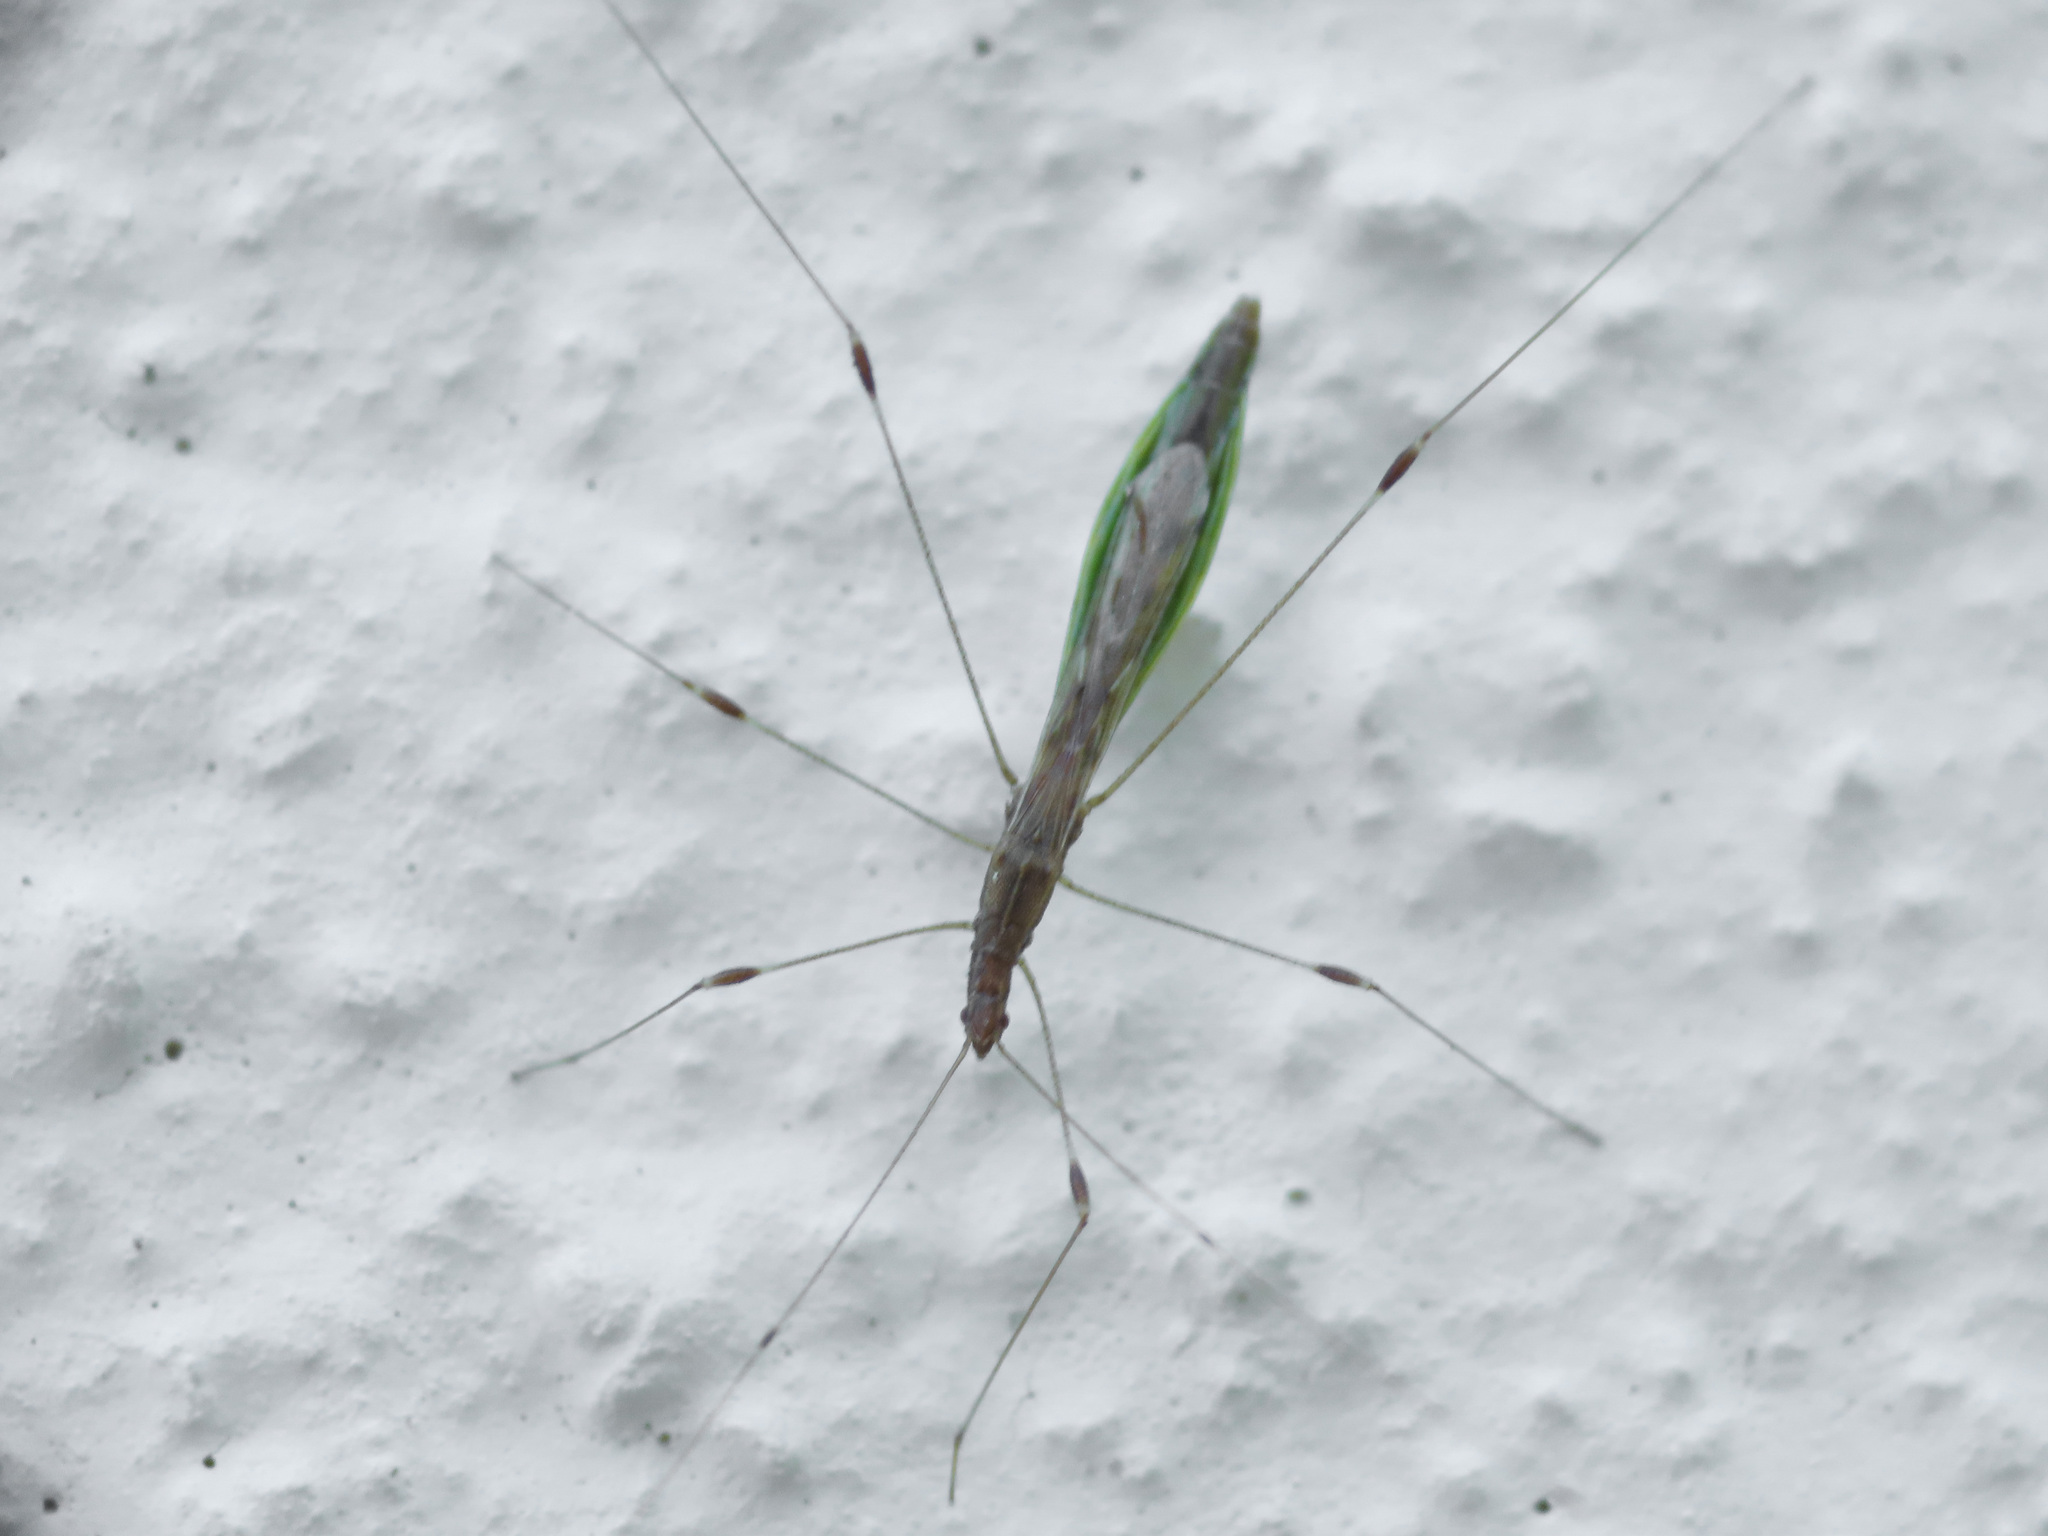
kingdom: Animalia
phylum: Arthropoda
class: Insecta
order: Hemiptera
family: Berytidae
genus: Apoplymus
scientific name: Apoplymus pectoralis
